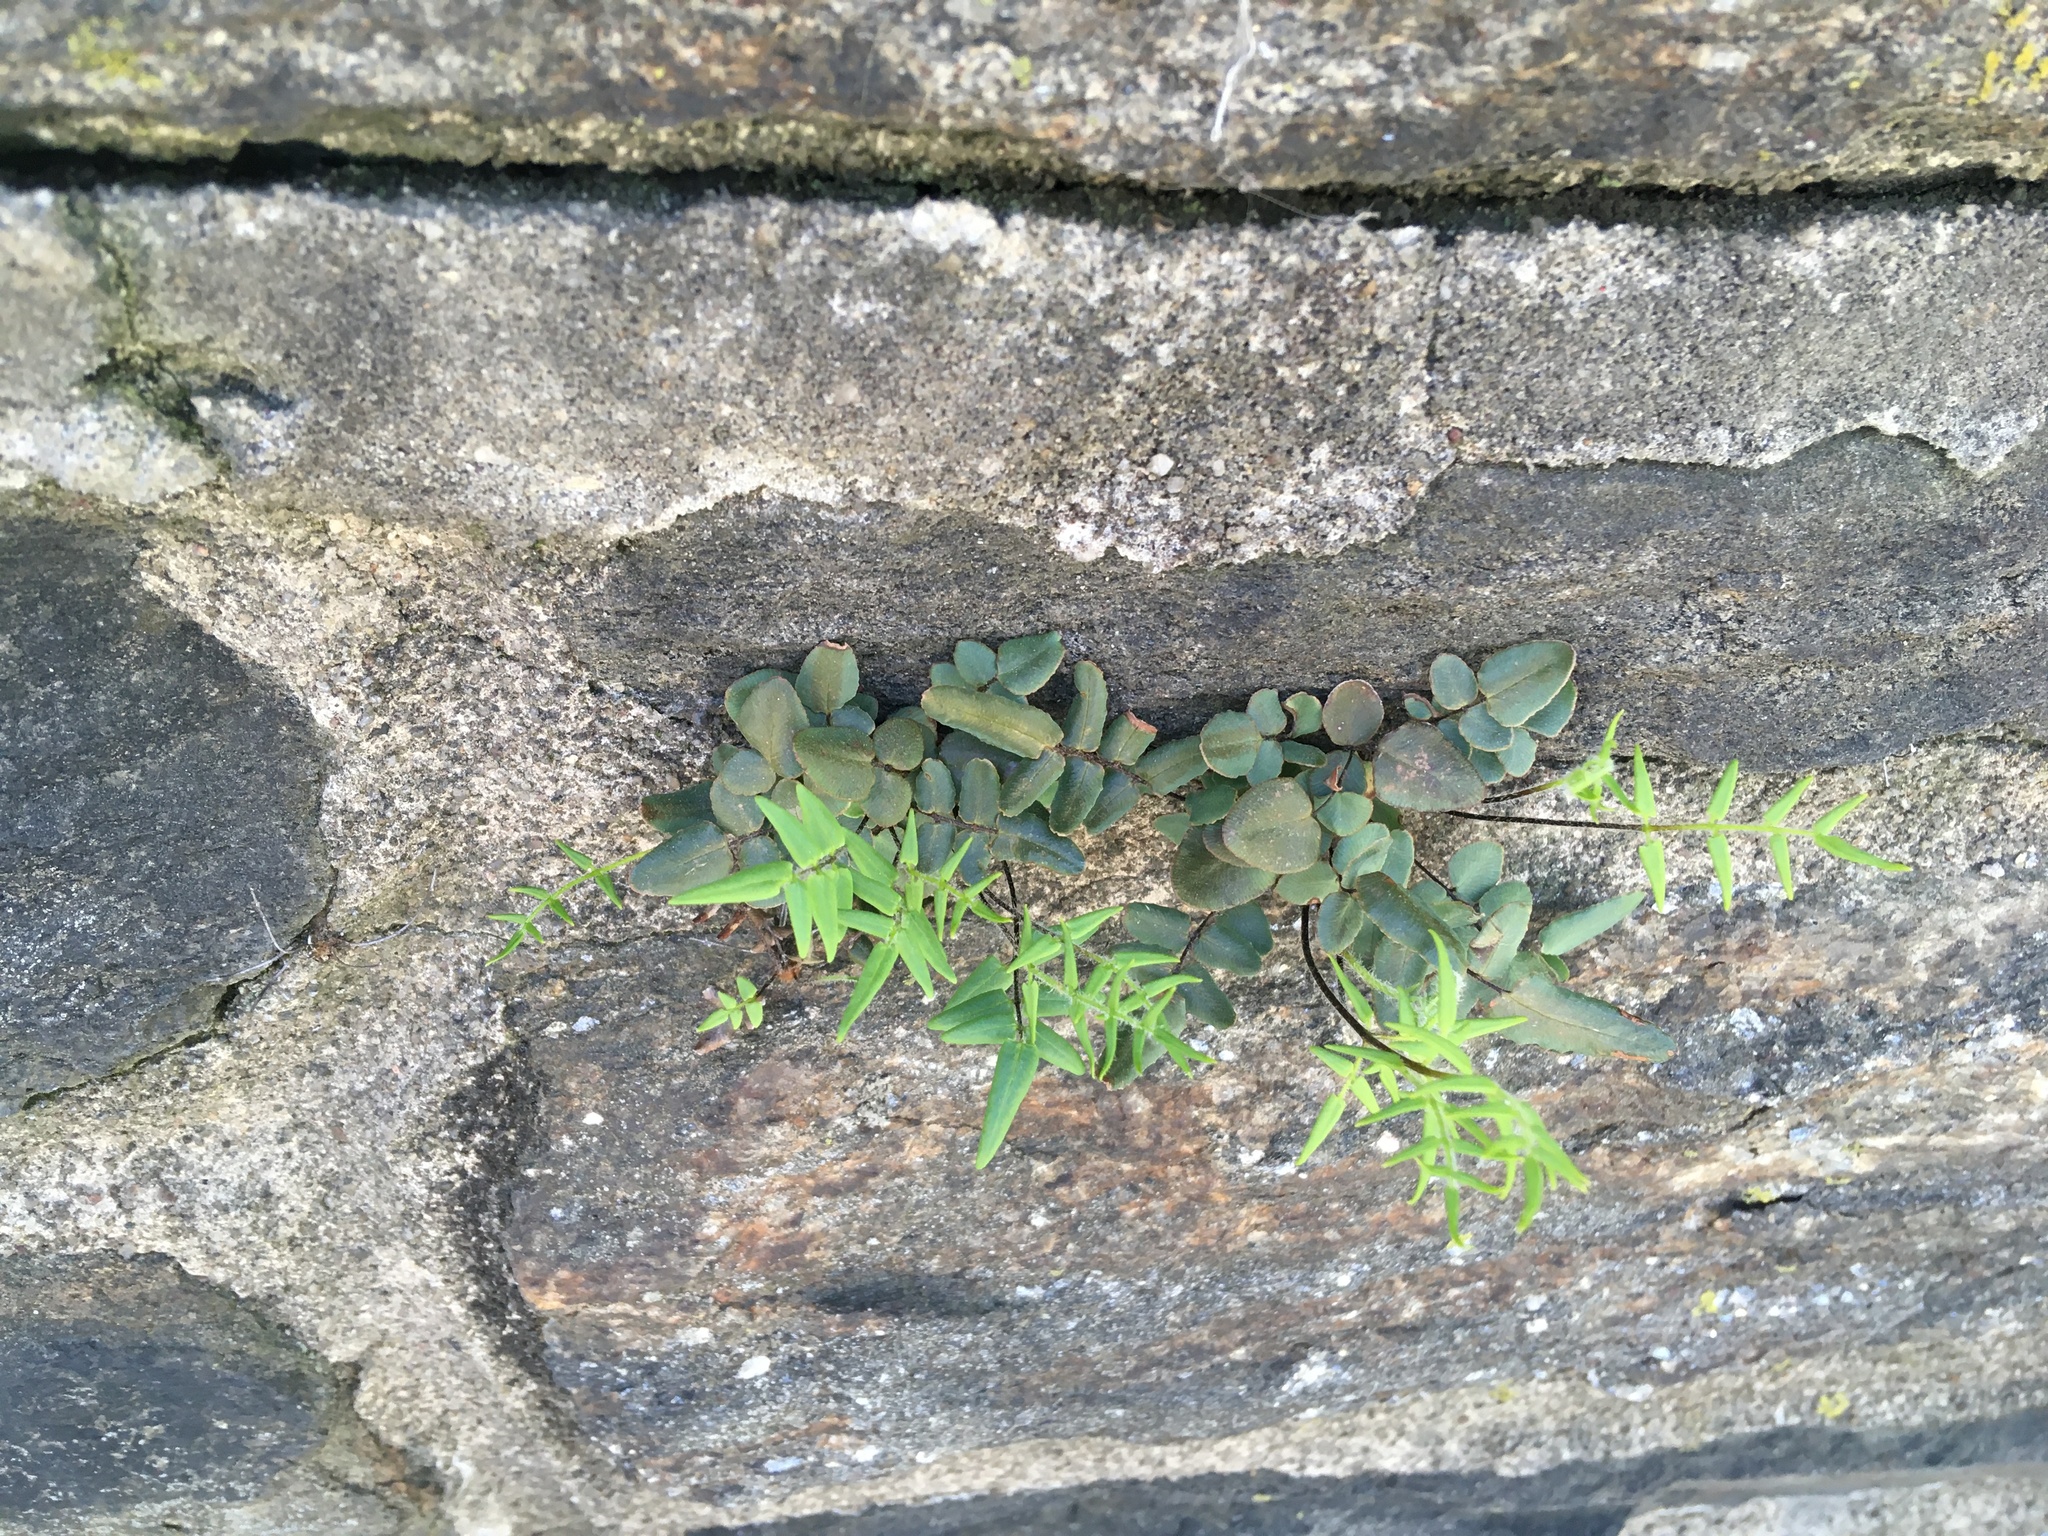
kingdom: Plantae
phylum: Tracheophyta
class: Polypodiopsida
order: Polypodiales
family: Pteridaceae
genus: Pellaea
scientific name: Pellaea atropurpurea
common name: Hairy cliffbrake
